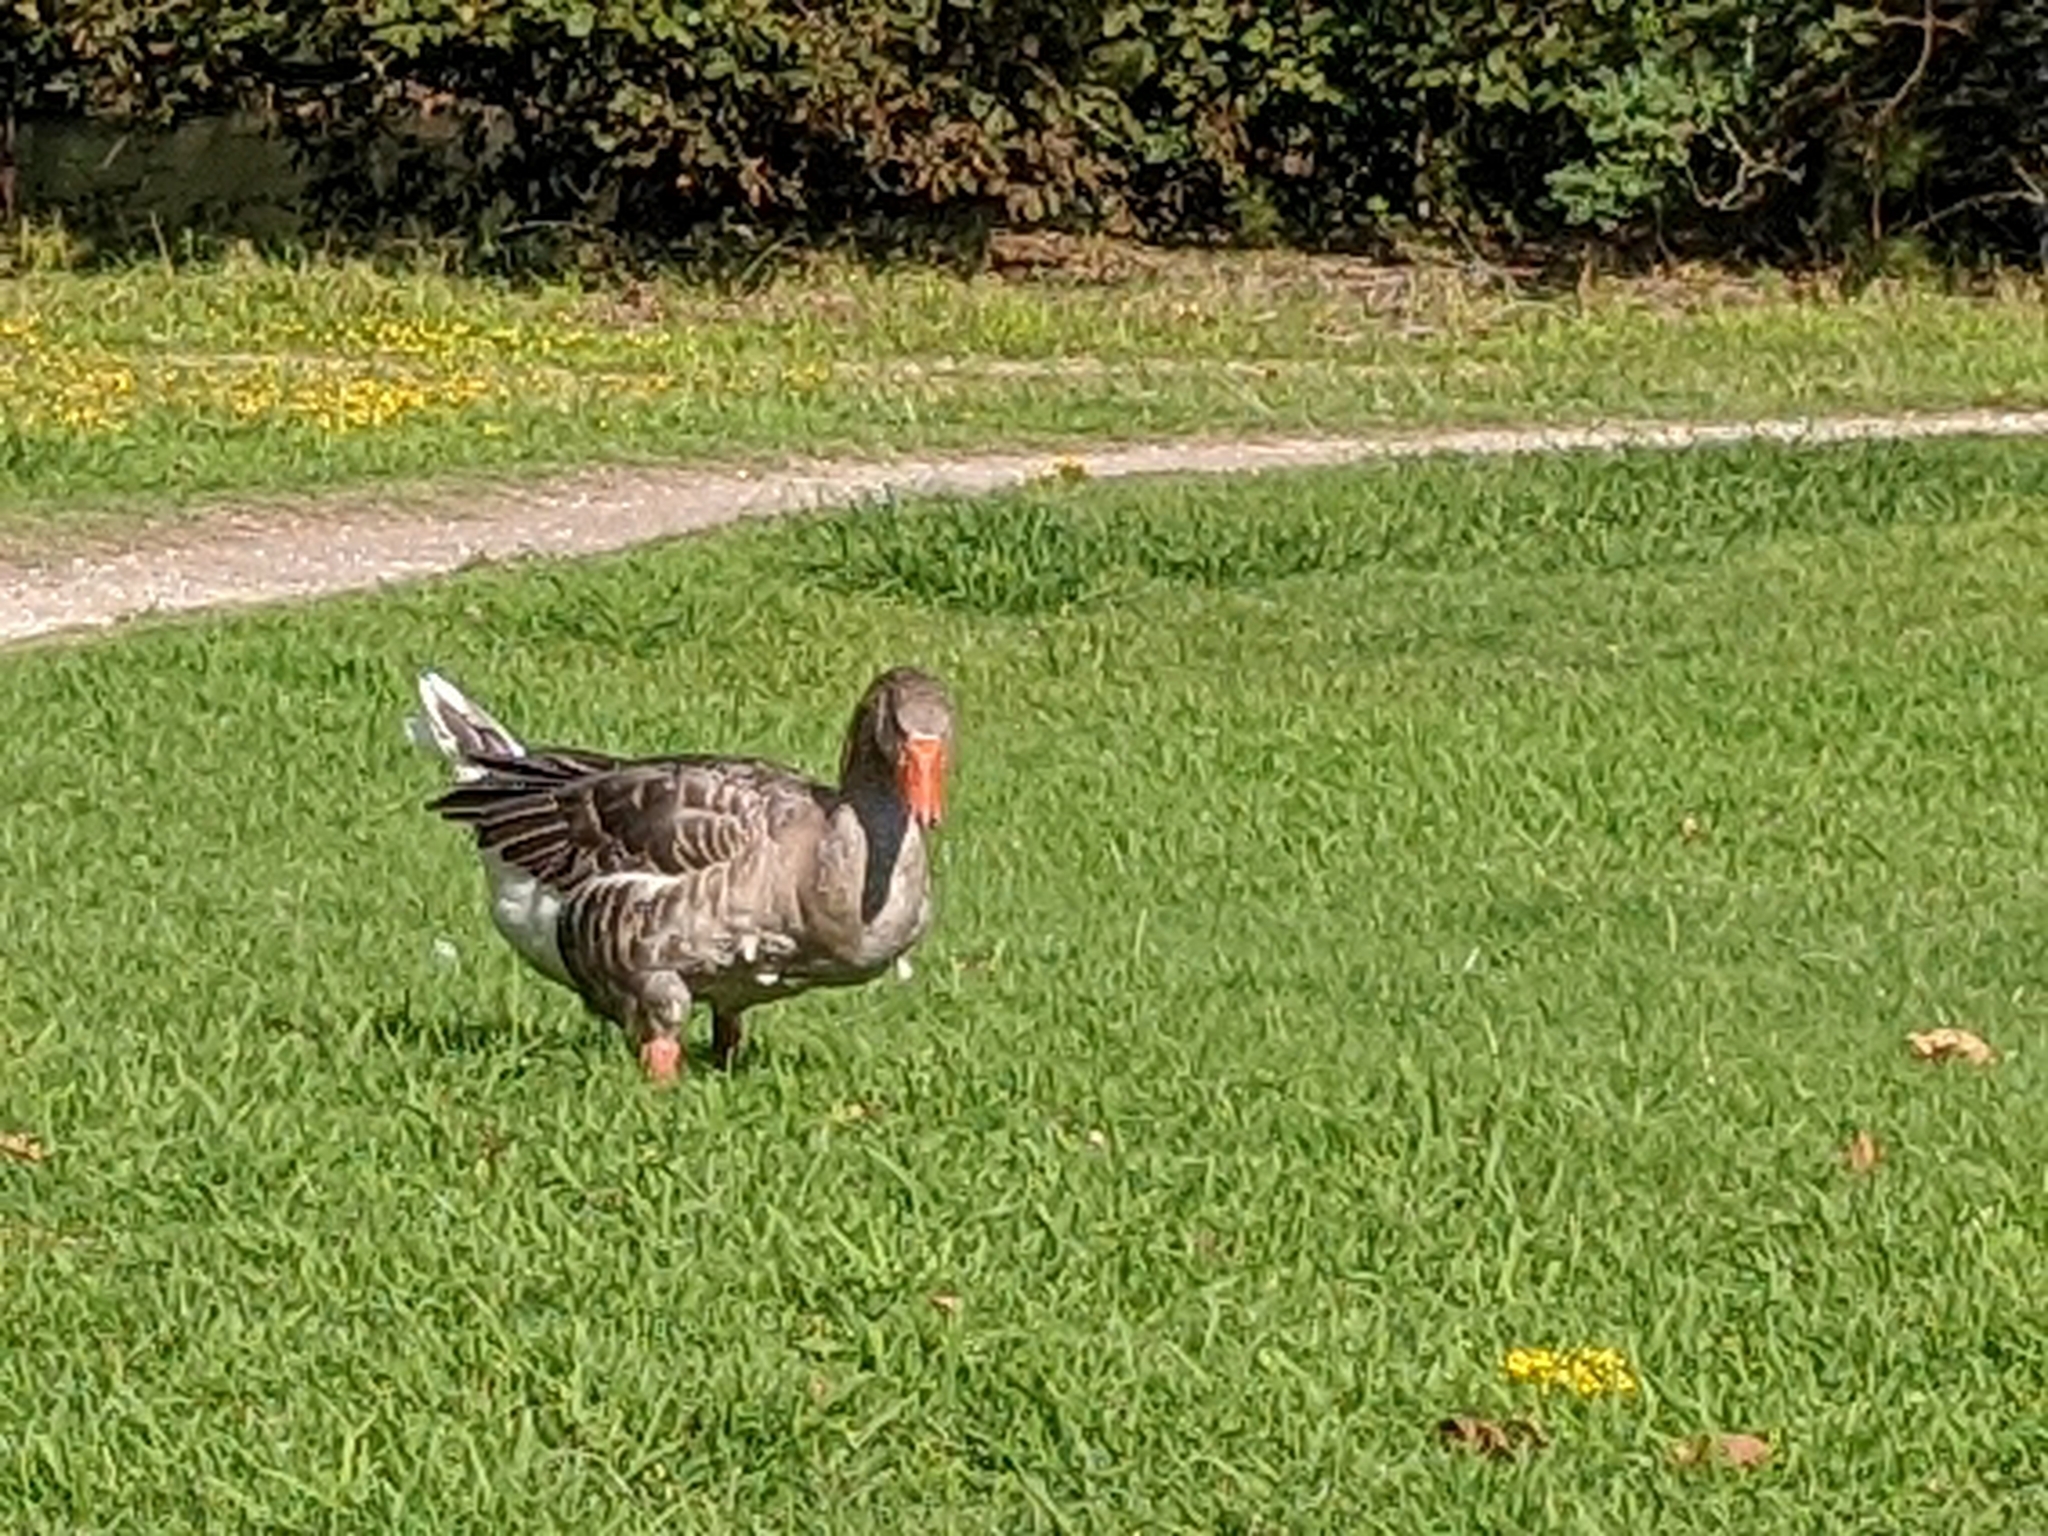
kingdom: Animalia
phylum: Chordata
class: Aves
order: Anseriformes
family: Anatidae
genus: Anser
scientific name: Anser
